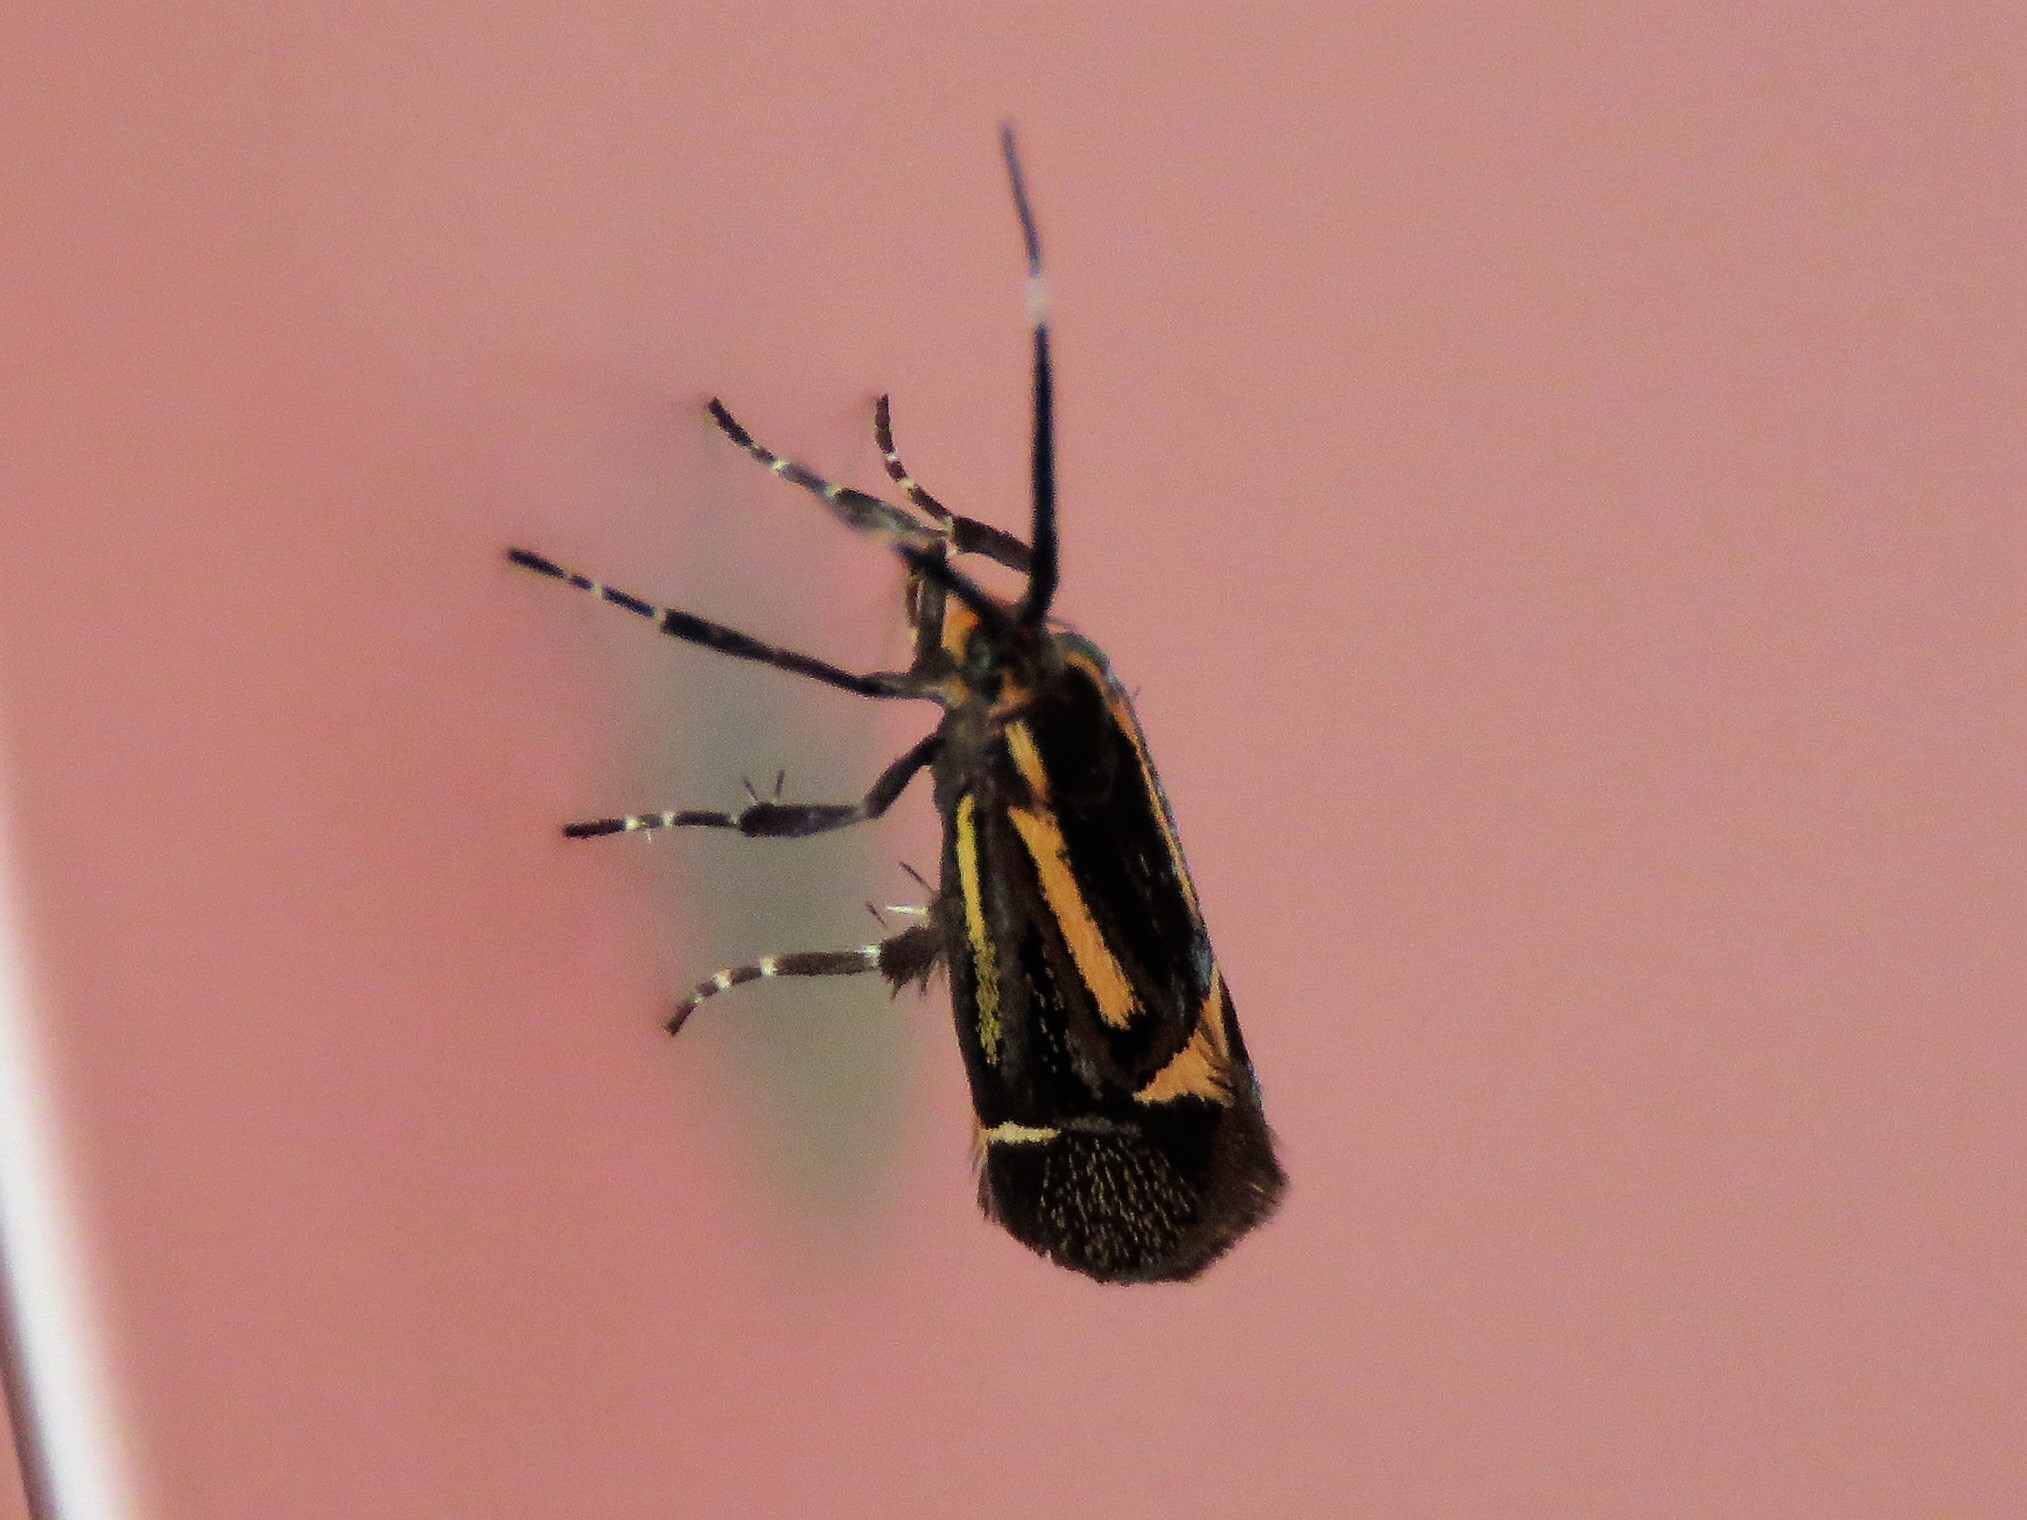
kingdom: Animalia
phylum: Arthropoda
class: Insecta
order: Lepidoptera
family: Oecophoridae
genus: Dafa
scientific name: Dafa Esperia sulphurella
